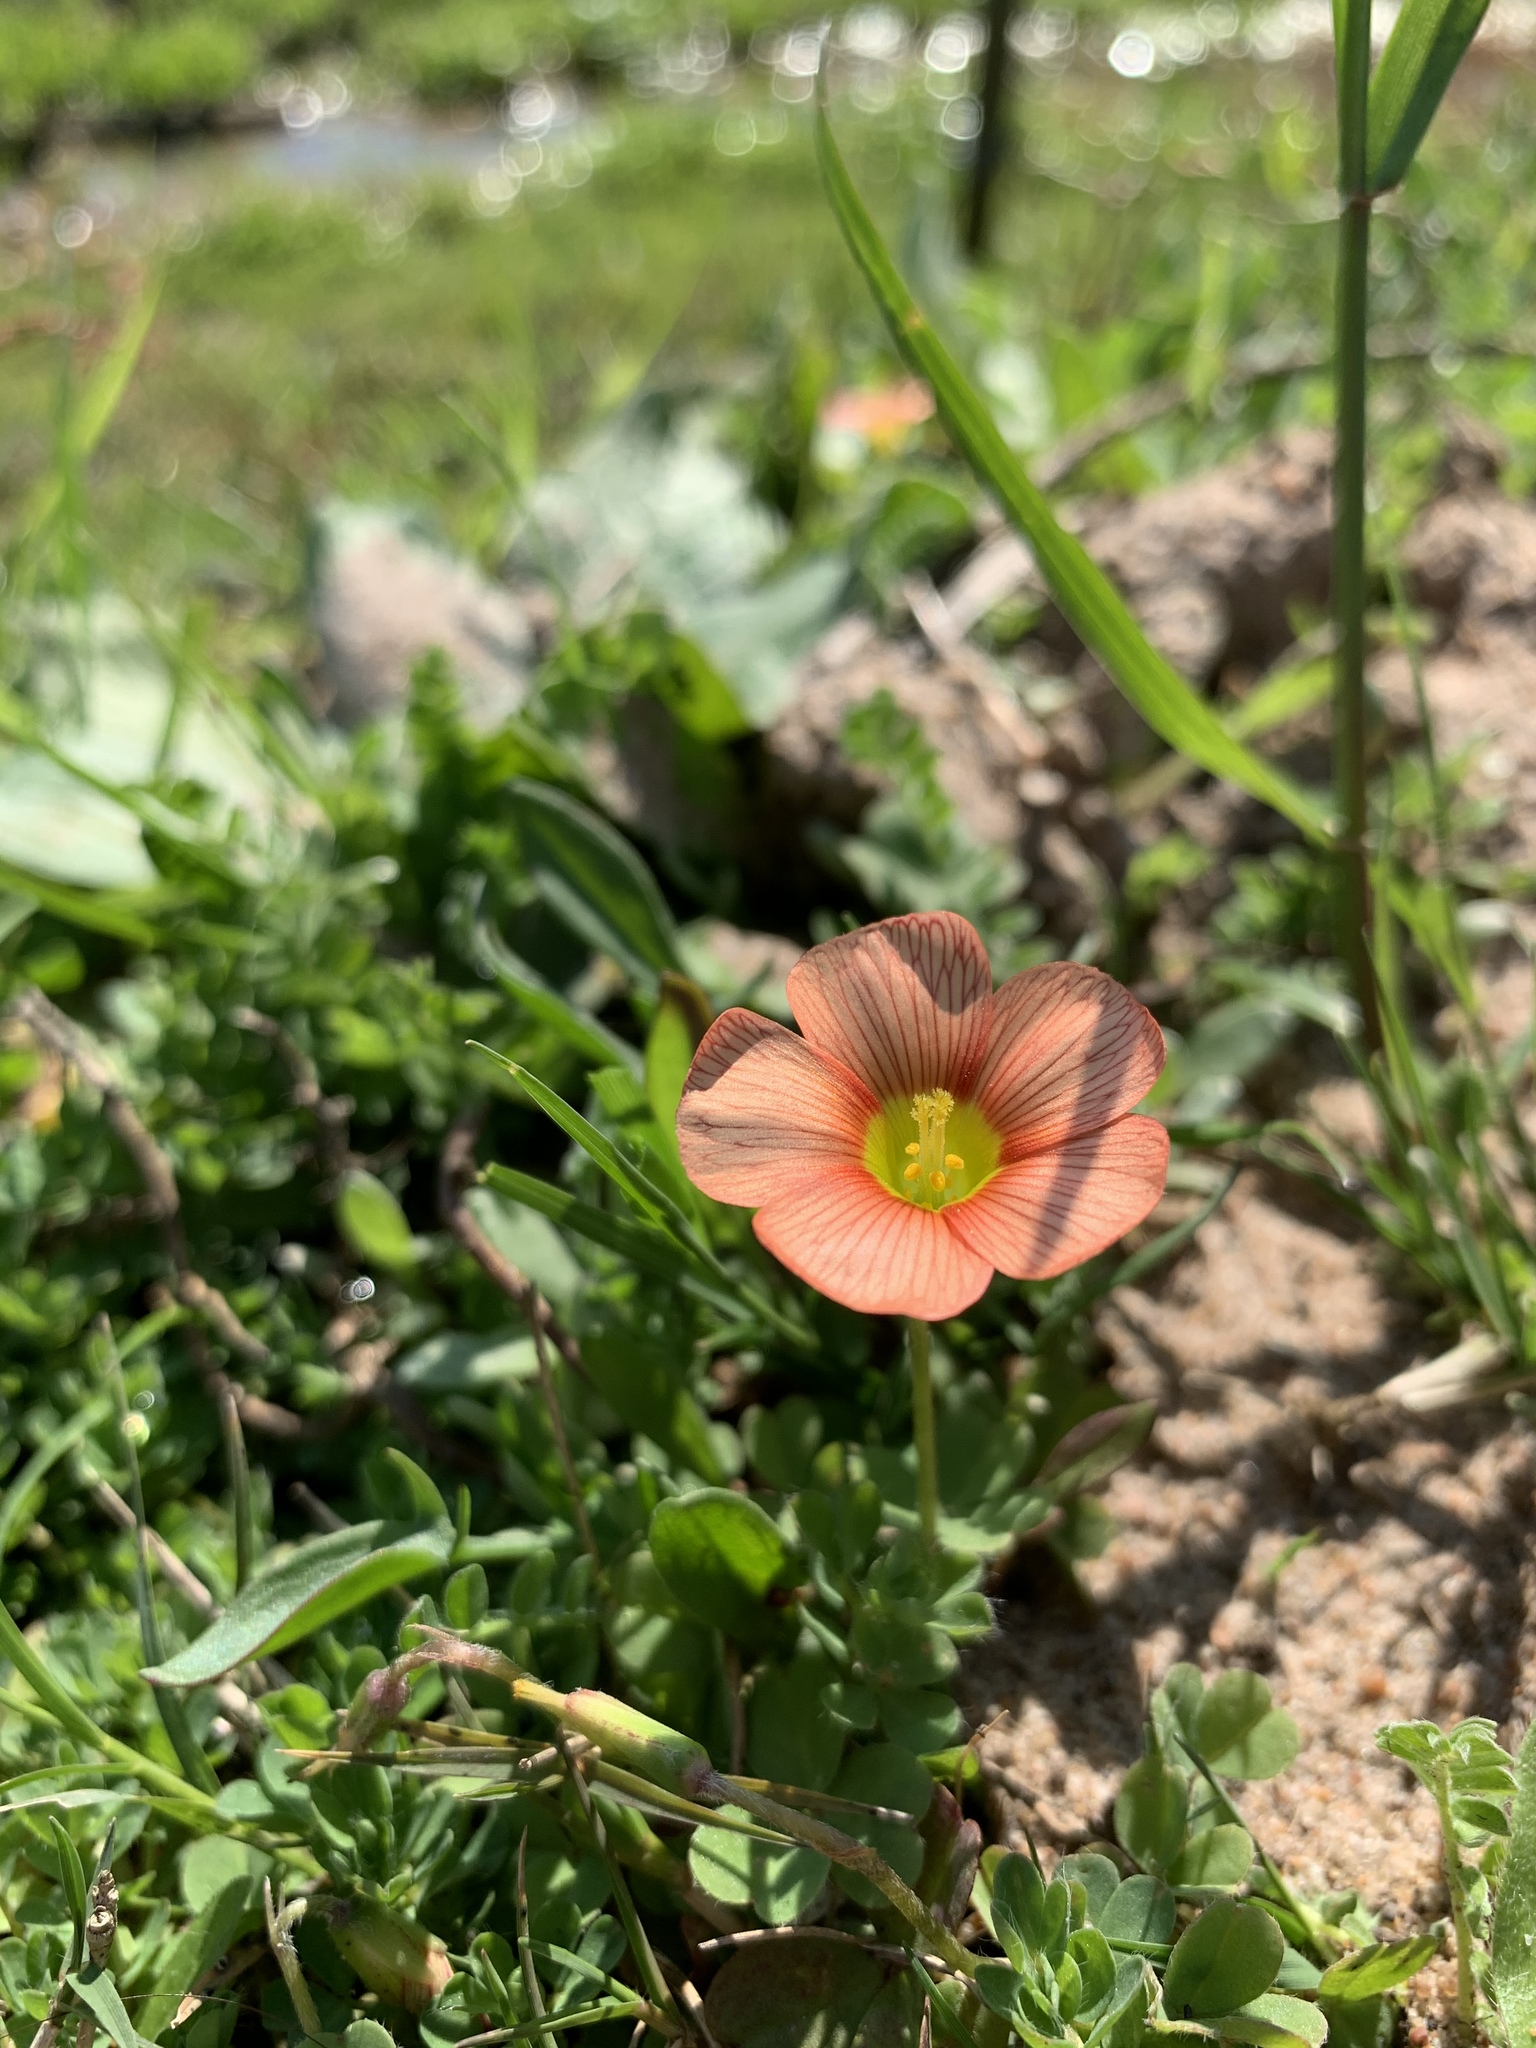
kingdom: Plantae
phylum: Tracheophyta
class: Magnoliopsida
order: Oxalidales
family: Oxalidaceae
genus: Oxalis
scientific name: Oxalis obtusa
